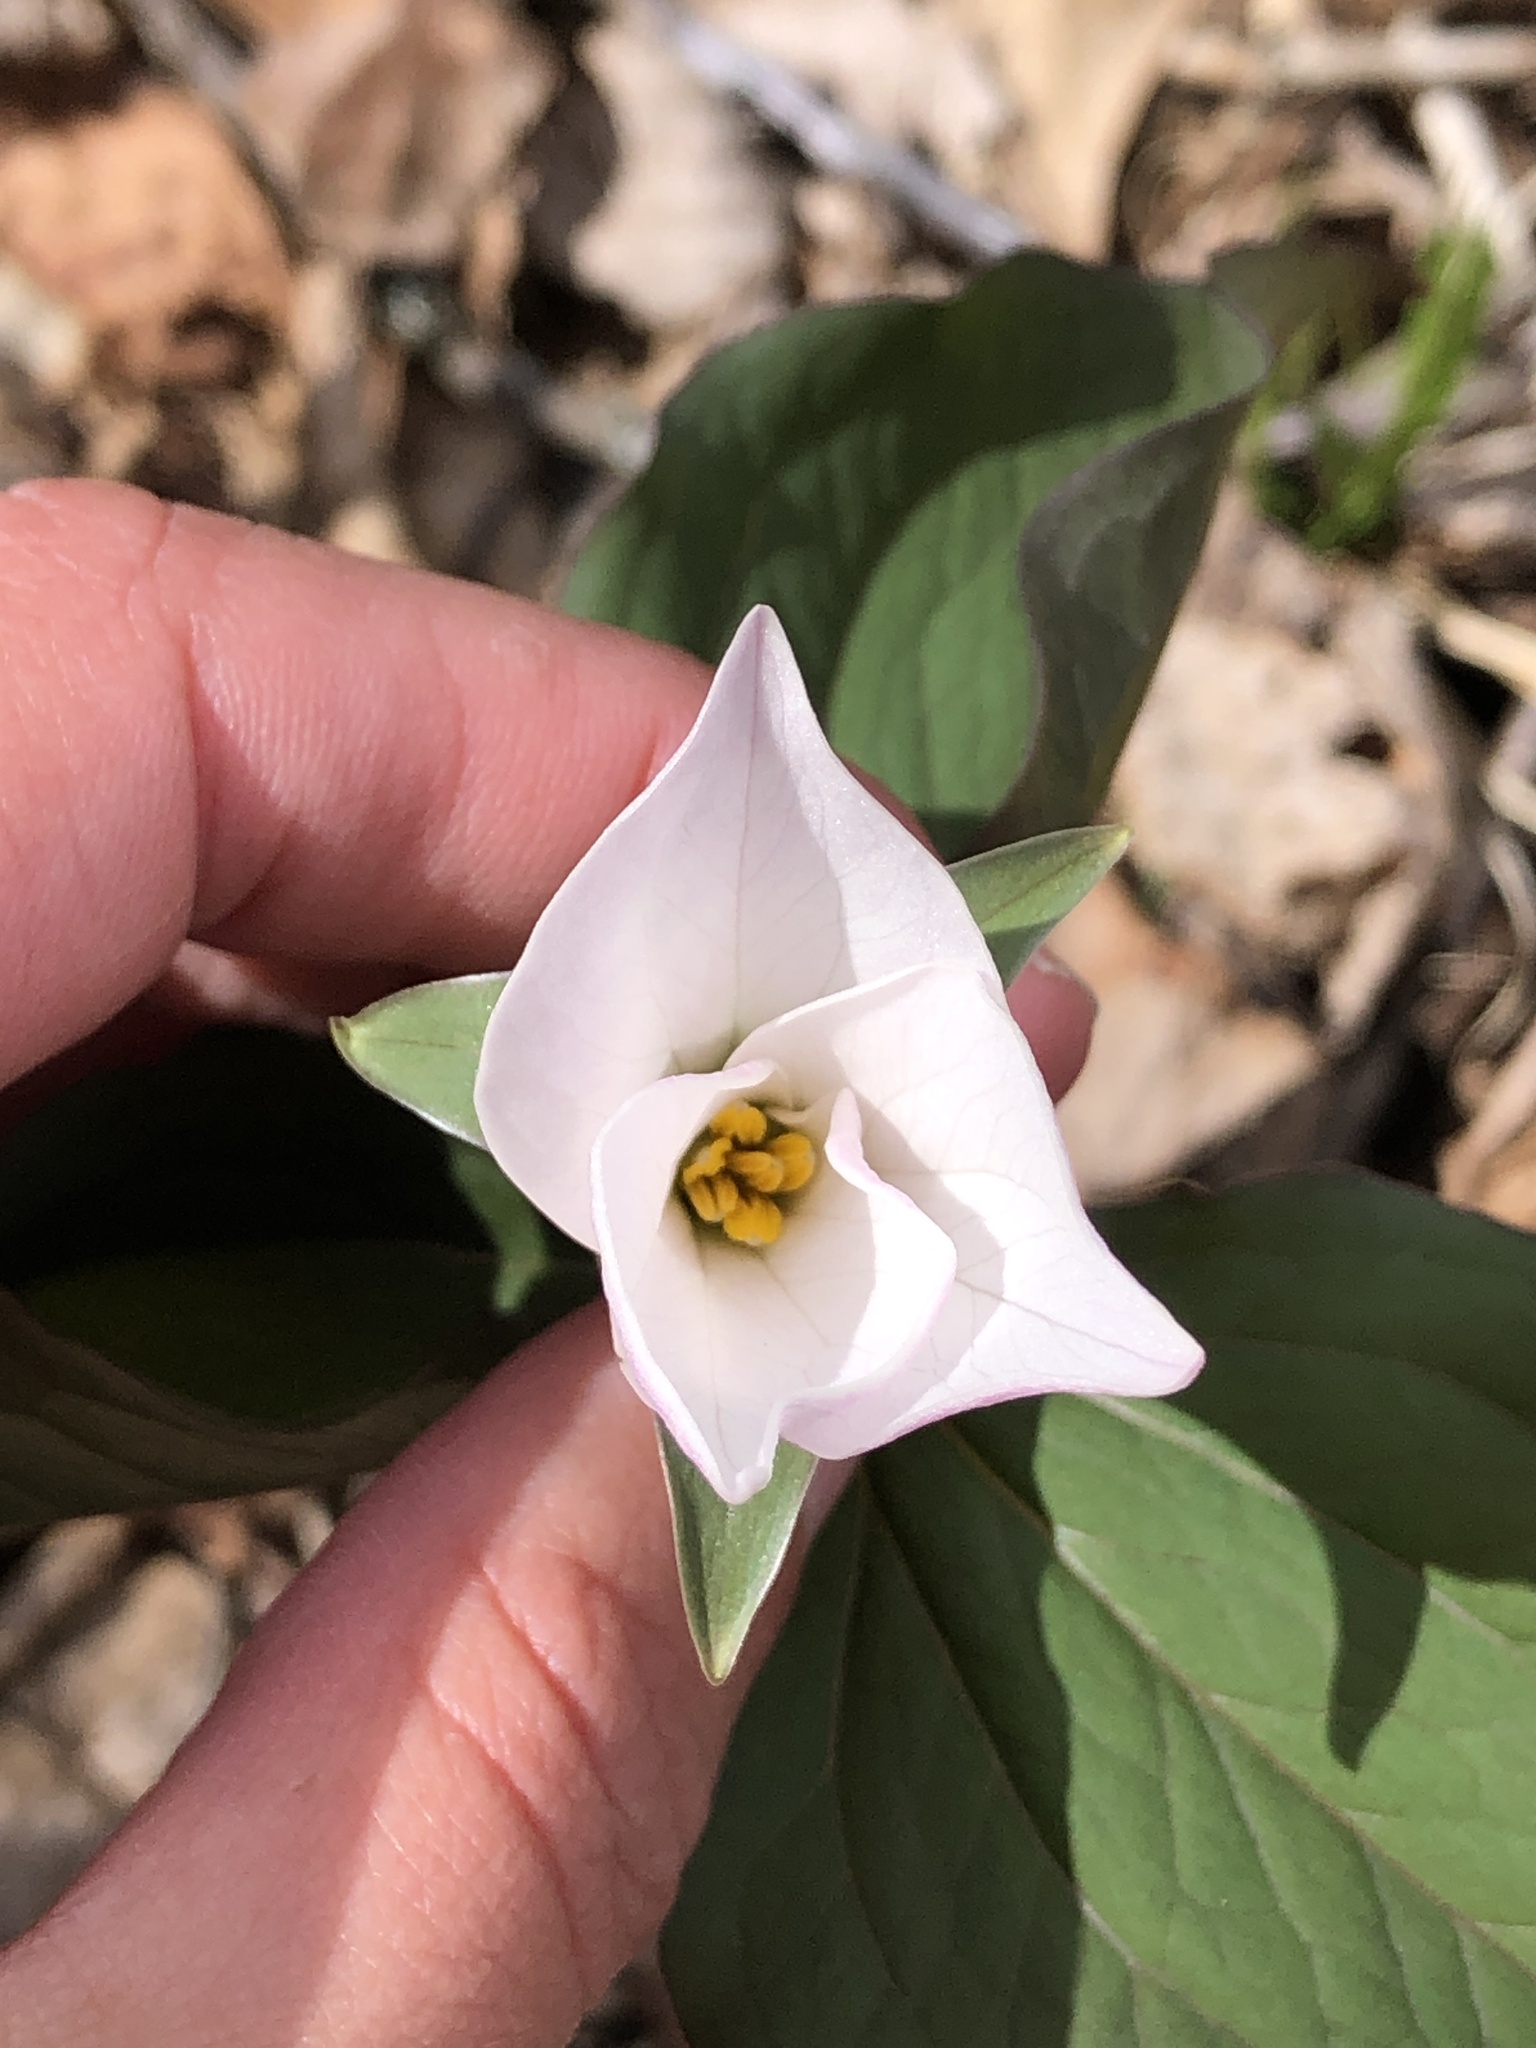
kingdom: Plantae
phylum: Tracheophyta
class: Liliopsida
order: Liliales
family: Melanthiaceae
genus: Trillium
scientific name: Trillium grandiflorum
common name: Great white trillium
